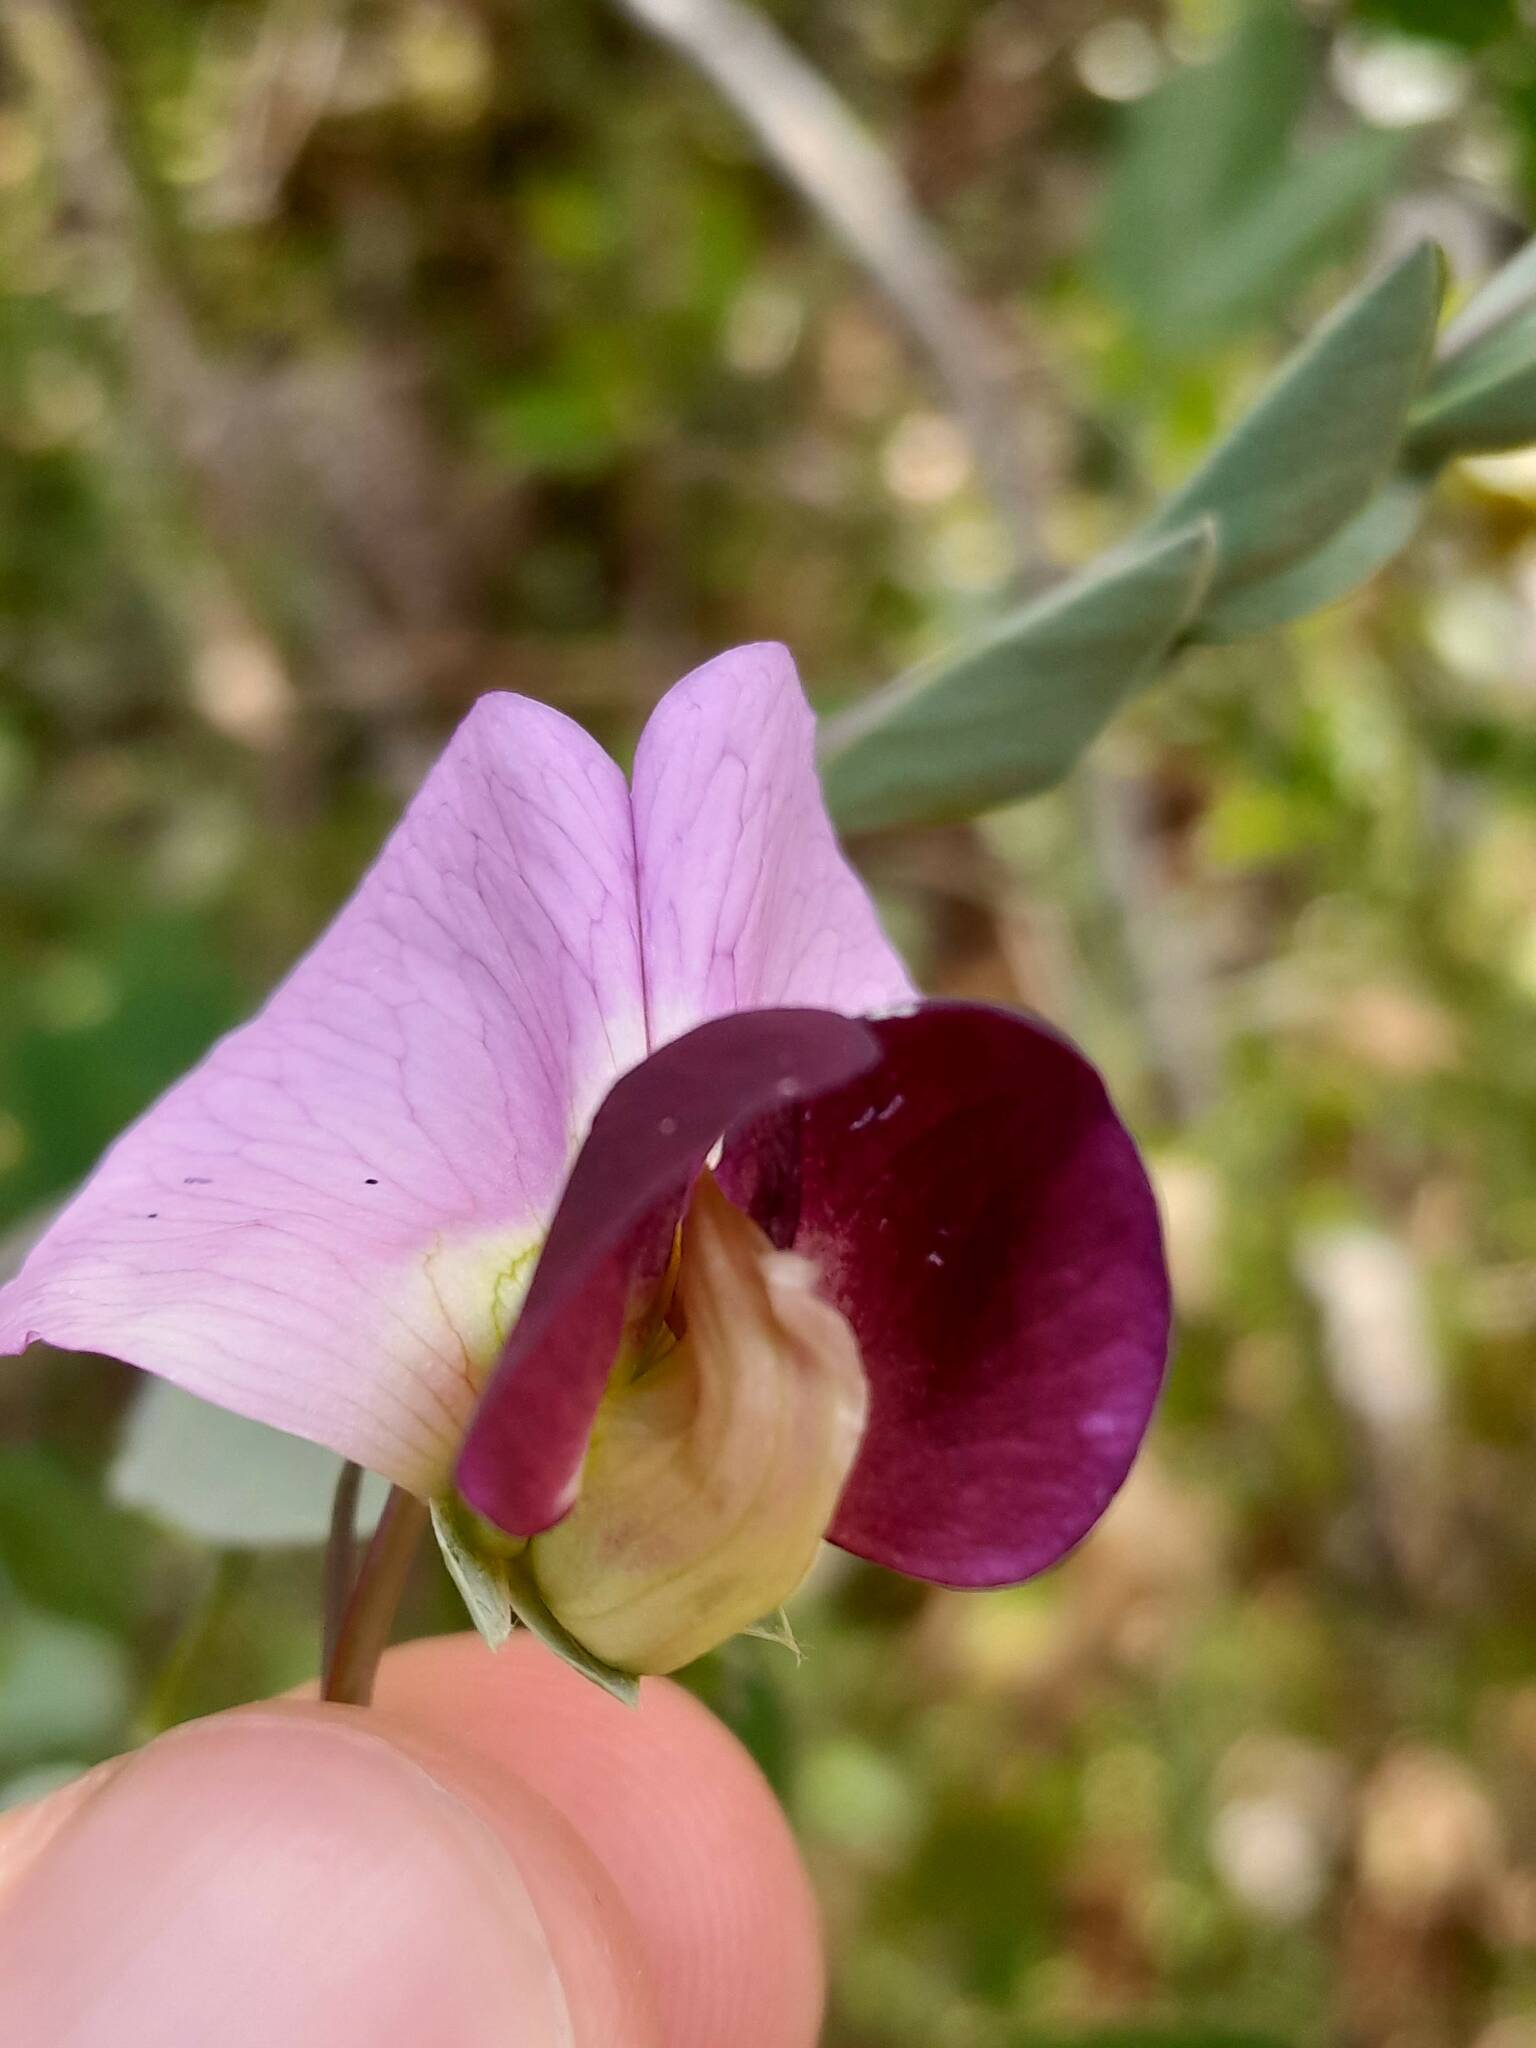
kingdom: Plantae
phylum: Tracheophyta
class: Magnoliopsida
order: Fabales
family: Fabaceae
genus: Lathyrus
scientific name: Lathyrus oleraceus
